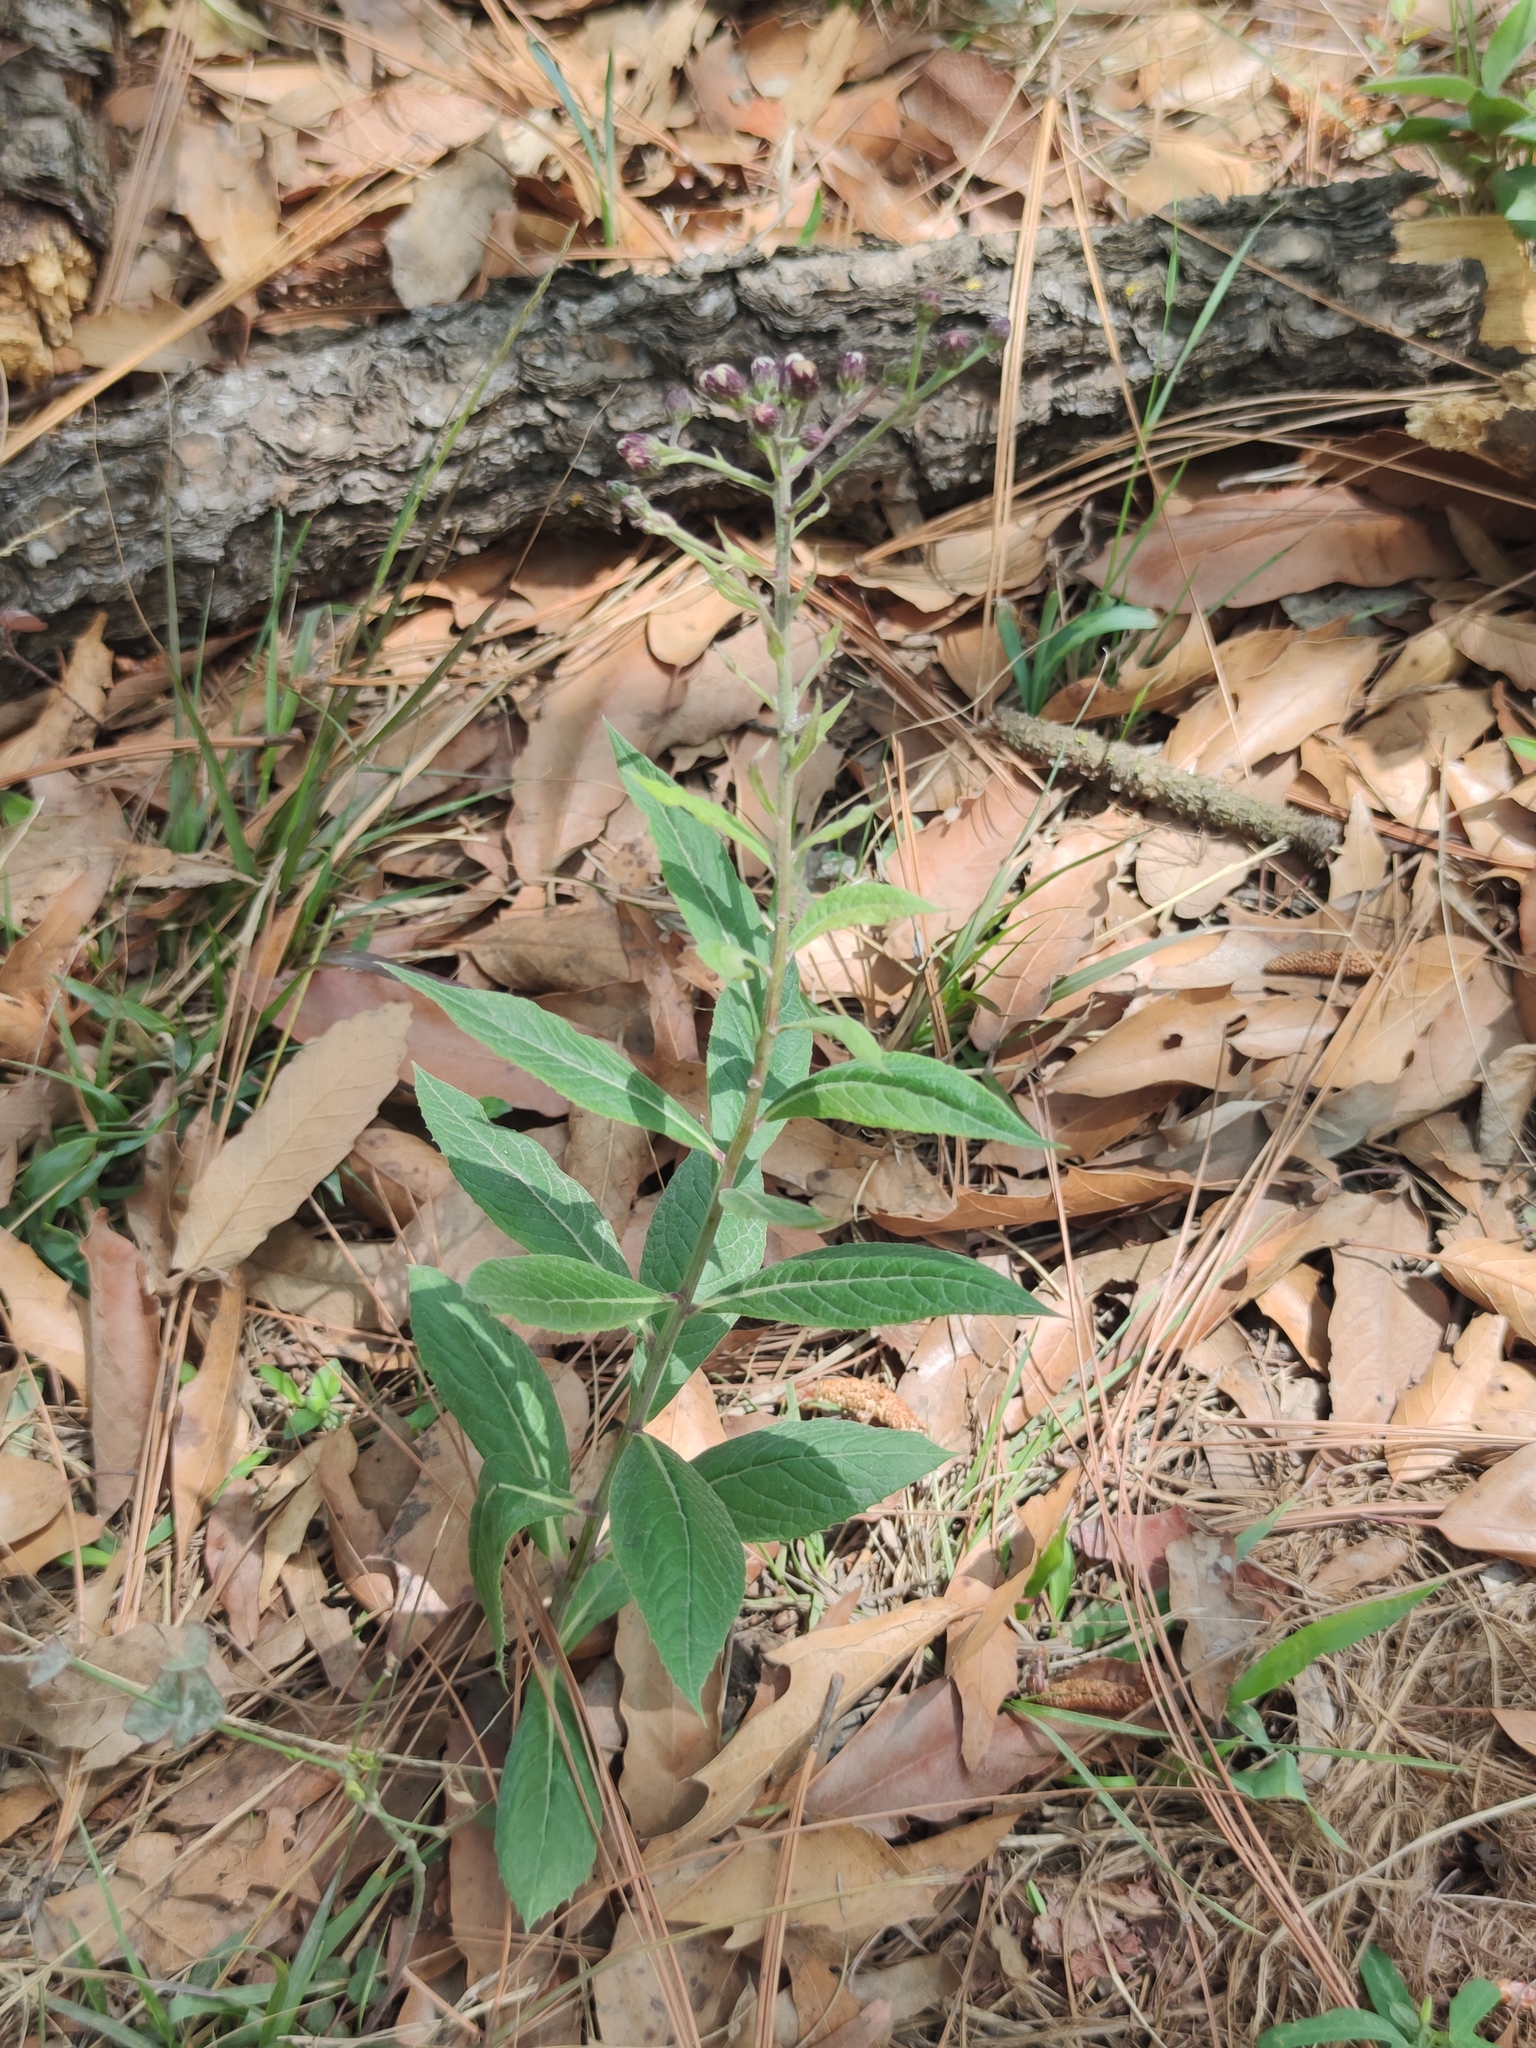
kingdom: Plantae
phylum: Tracheophyta
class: Magnoliopsida
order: Asterales
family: Asteraceae
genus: Vernonia
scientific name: Vernonia greggii
